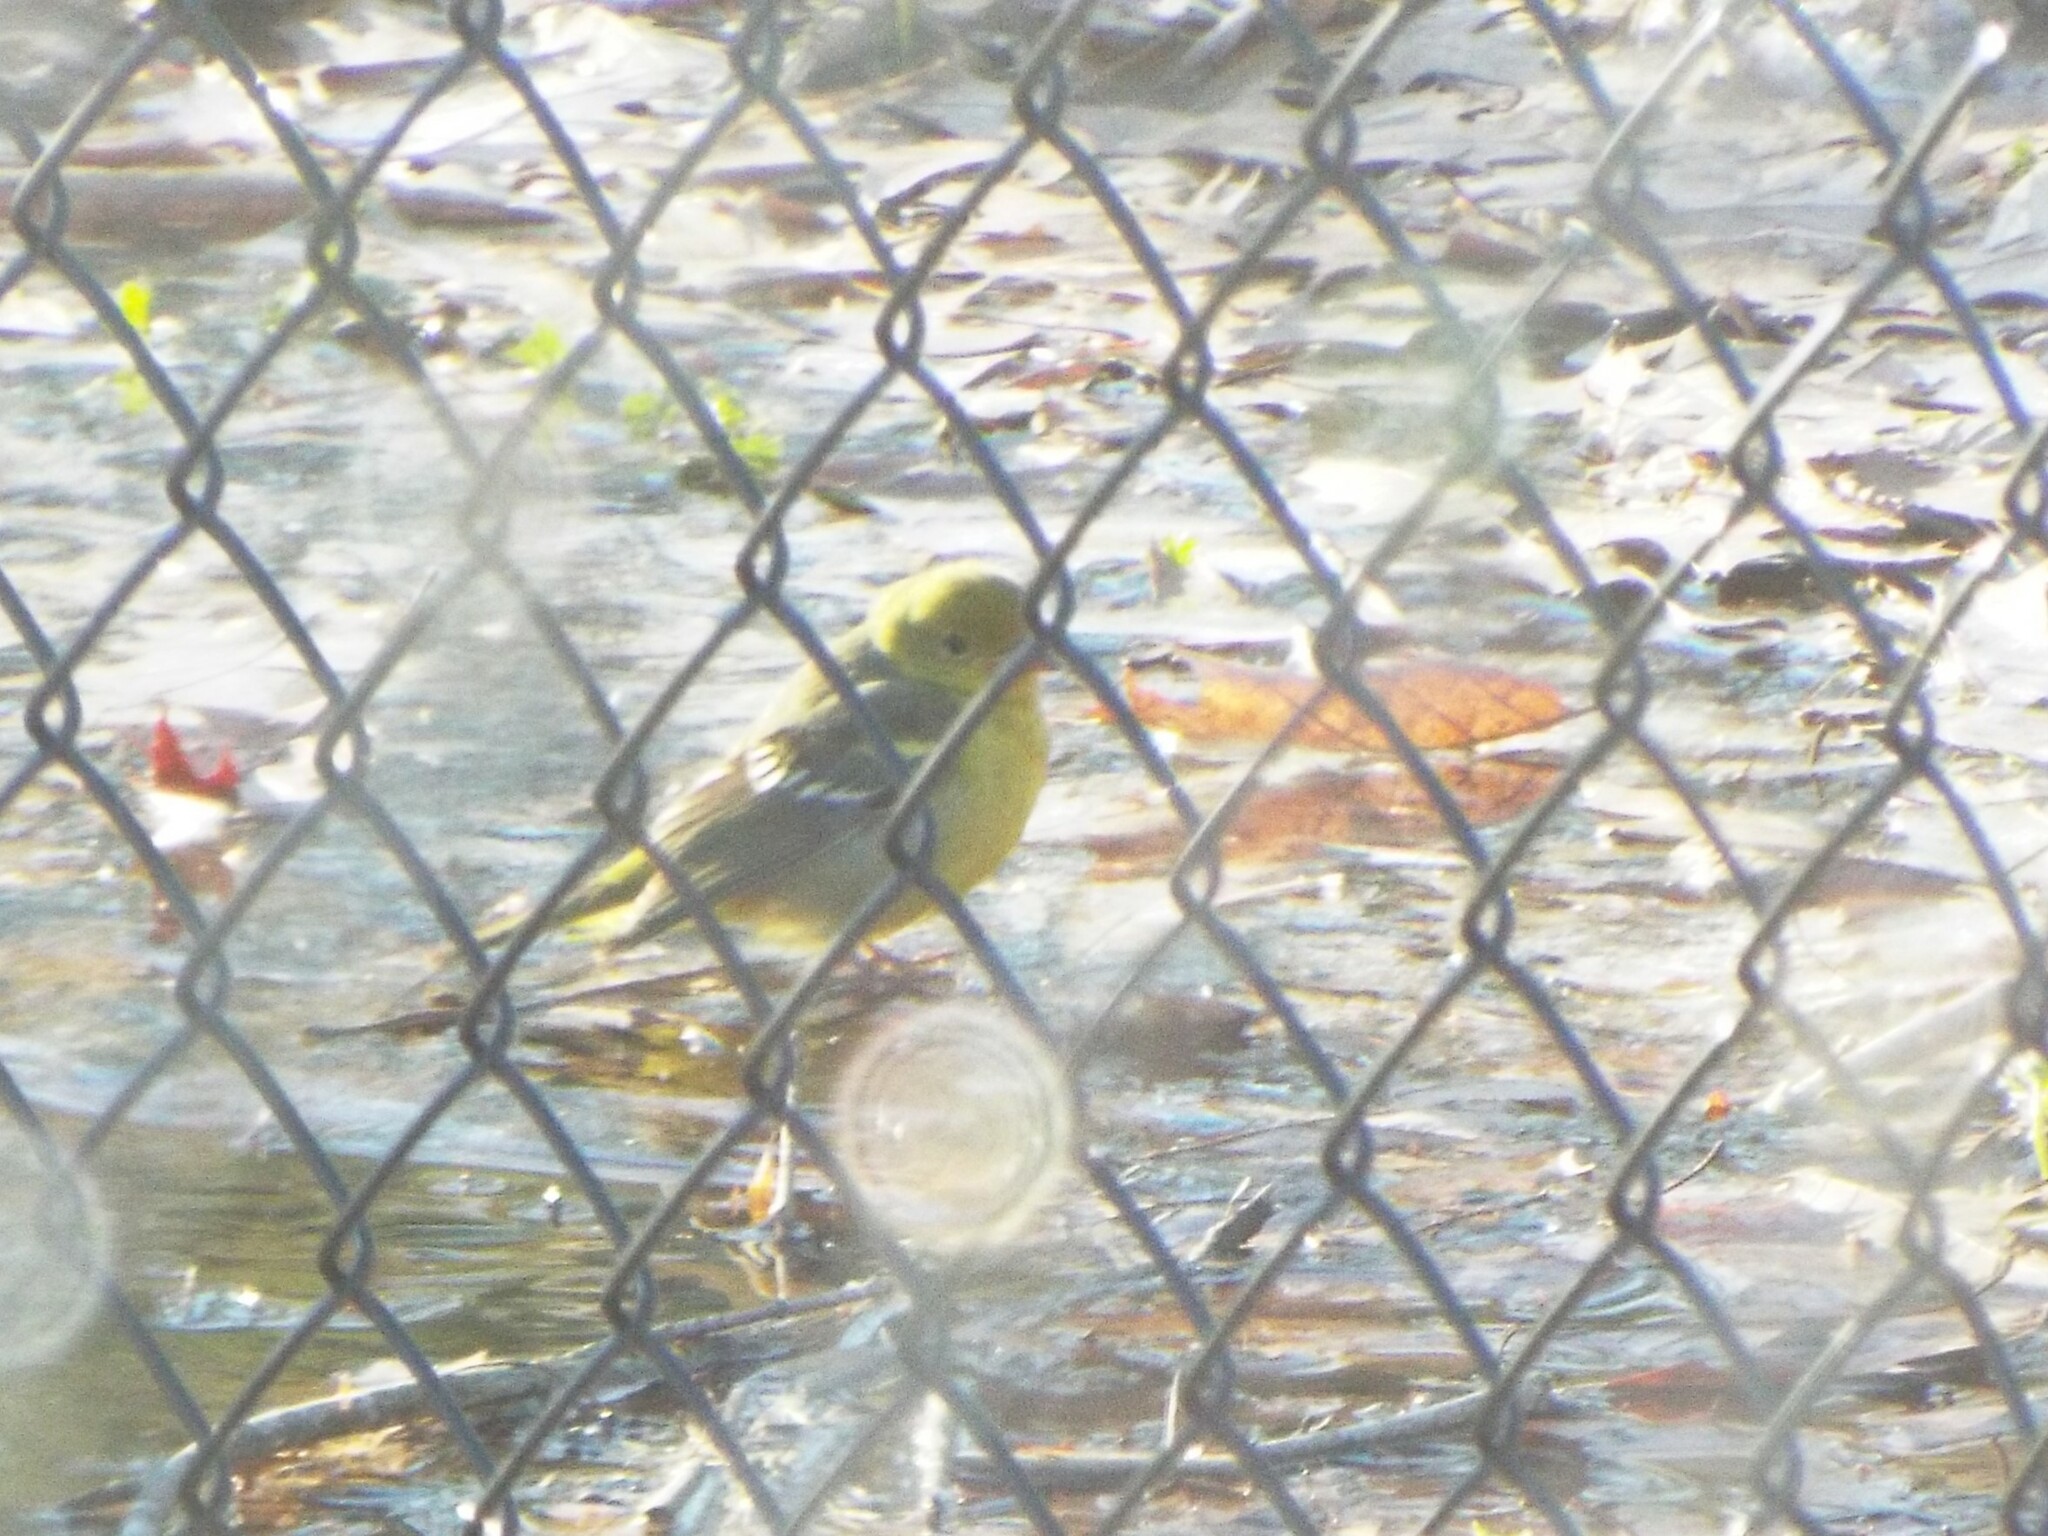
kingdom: Animalia
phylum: Chordata
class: Aves
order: Passeriformes
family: Cardinalidae
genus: Piranga
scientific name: Piranga ludoviciana
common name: Western tanager
